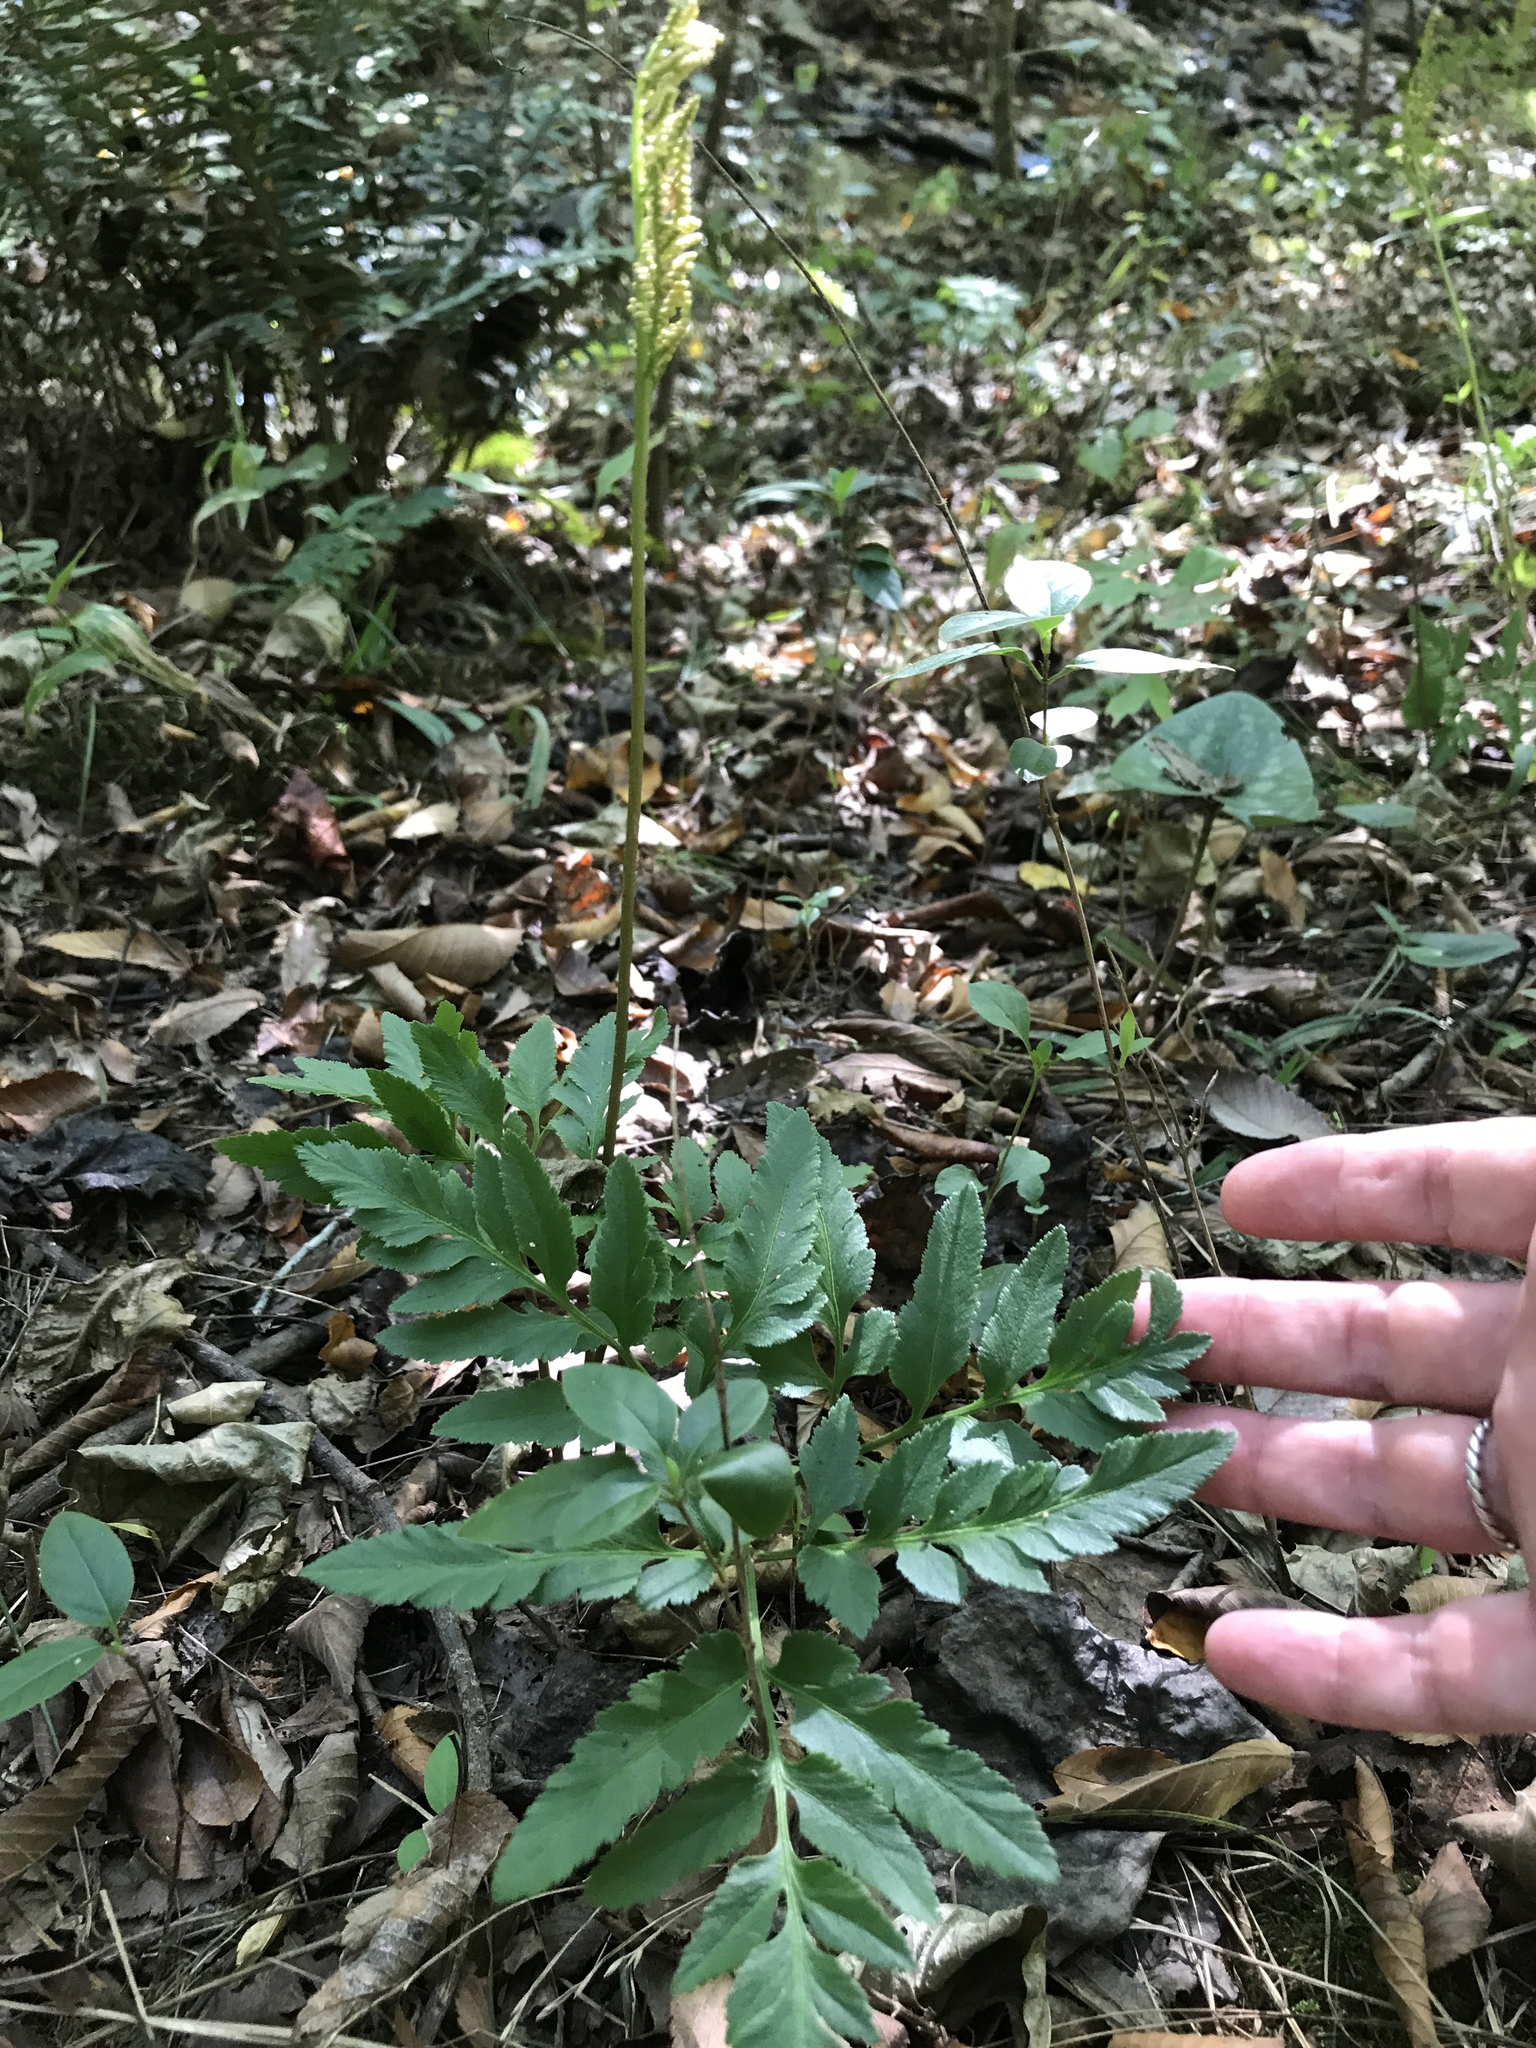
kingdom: Plantae
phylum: Tracheophyta
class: Polypodiopsida
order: Ophioglossales
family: Ophioglossaceae
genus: Sceptridium
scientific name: Sceptridium biternatum
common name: Sparse-lobed grapefern
